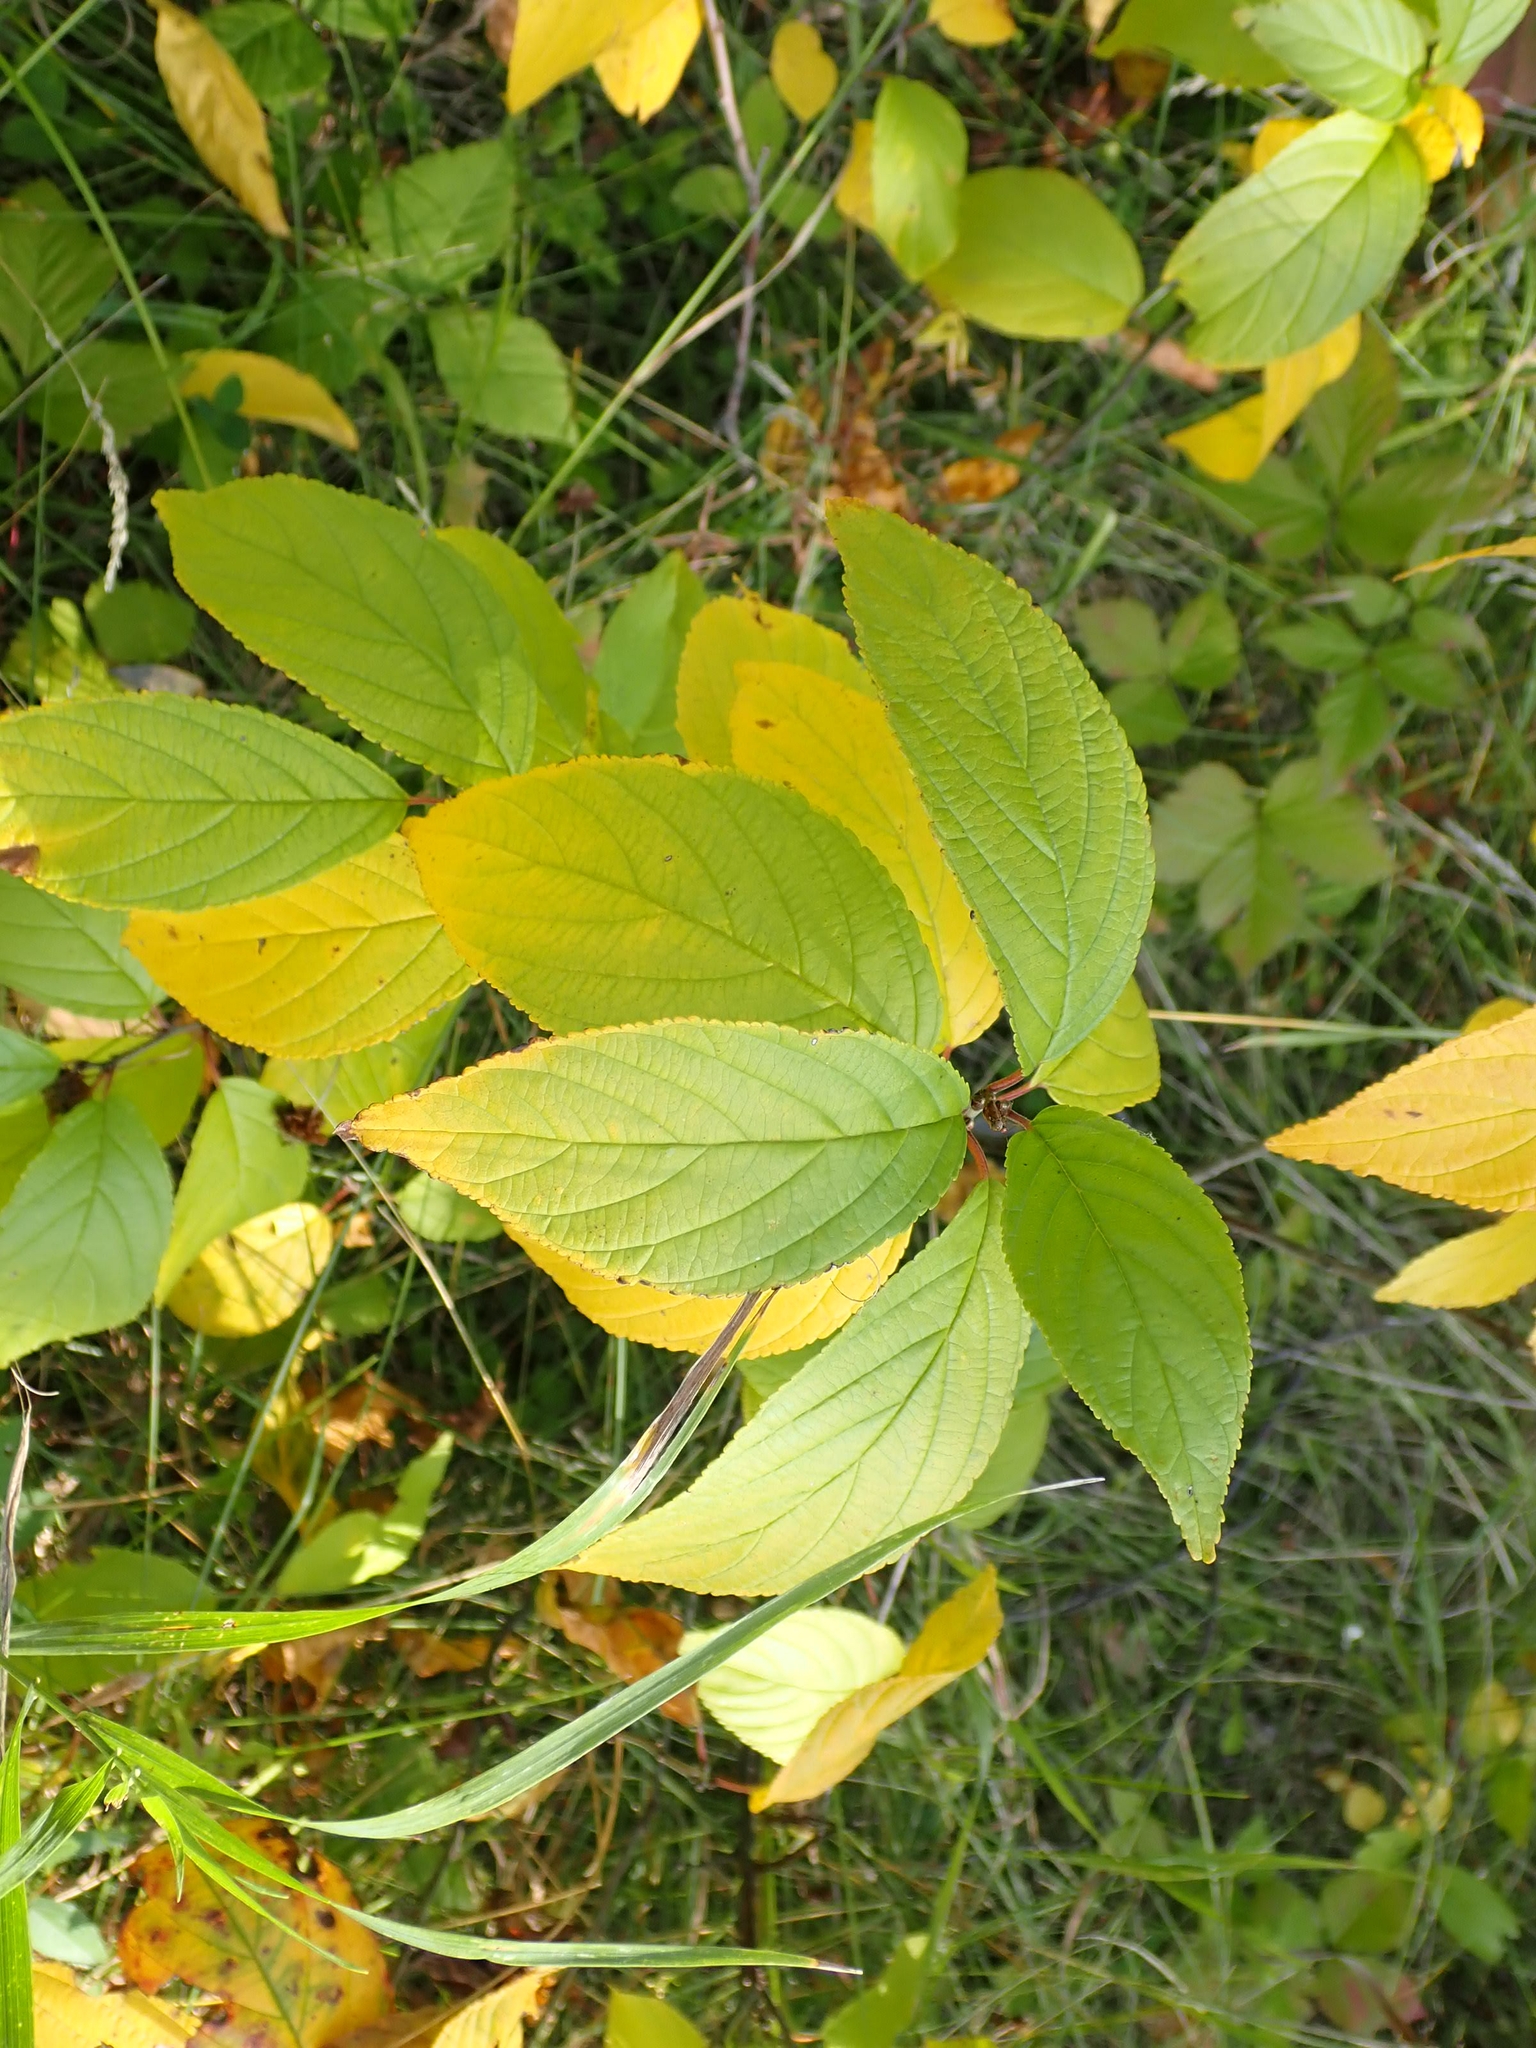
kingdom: Plantae
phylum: Tracheophyta
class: Magnoliopsida
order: Rosales
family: Rhamnaceae
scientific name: Rhamnaceae
